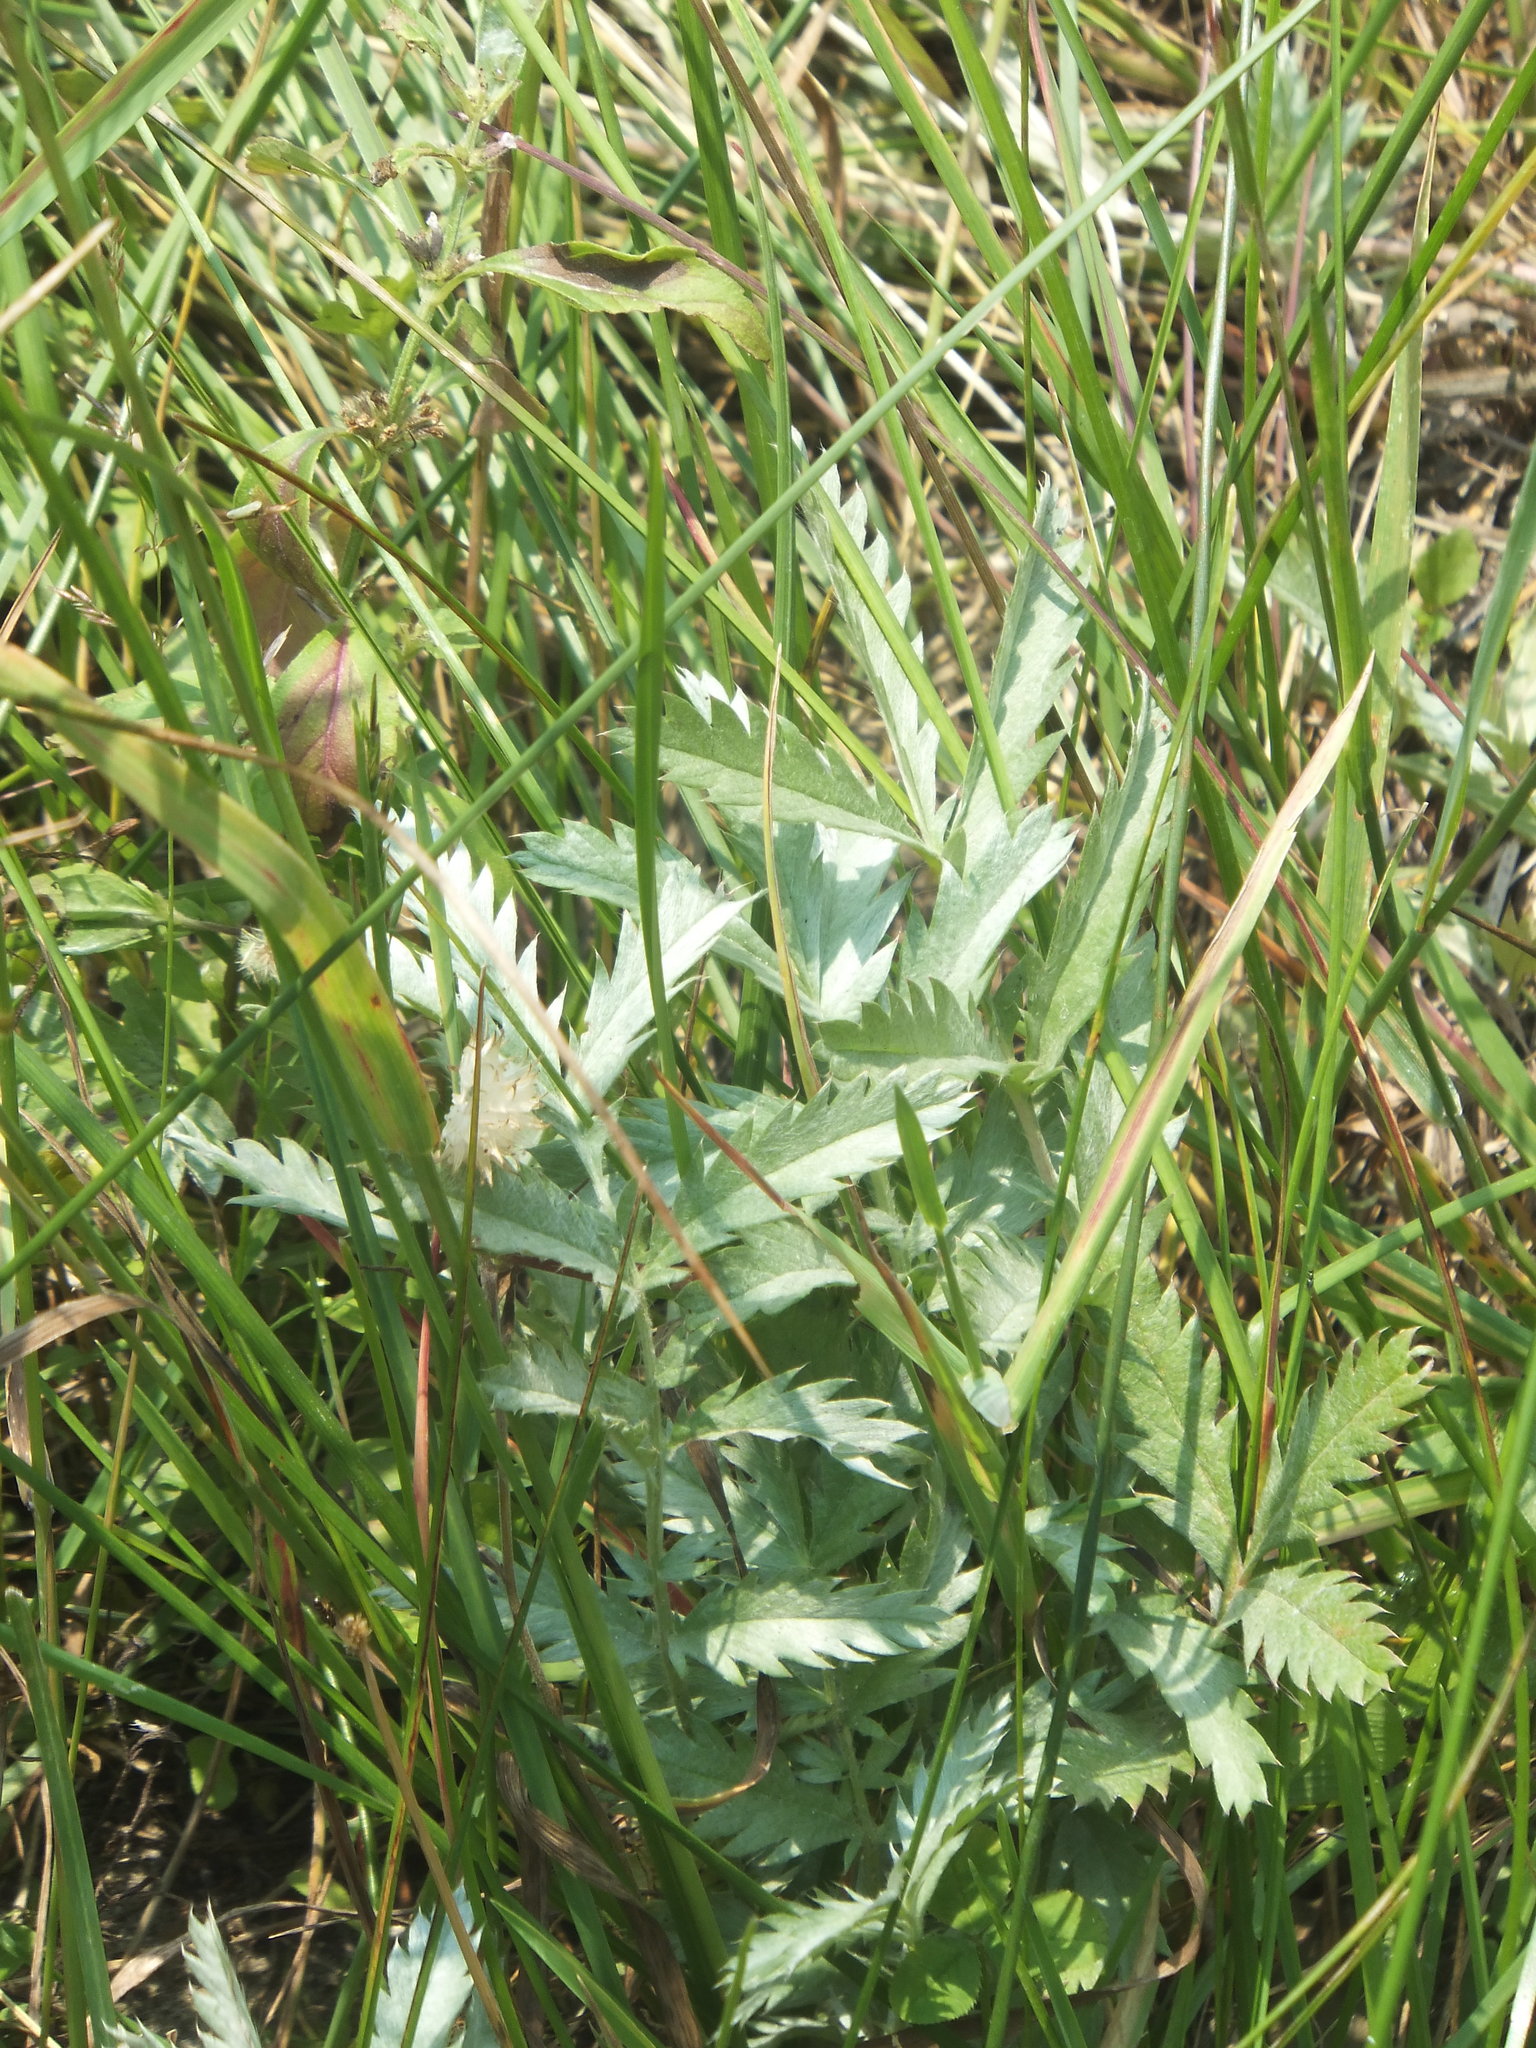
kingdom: Plantae
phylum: Tracheophyta
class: Magnoliopsida
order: Rosales
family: Rosaceae
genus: Argentina
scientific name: Argentina anserina
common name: Common silverweed
